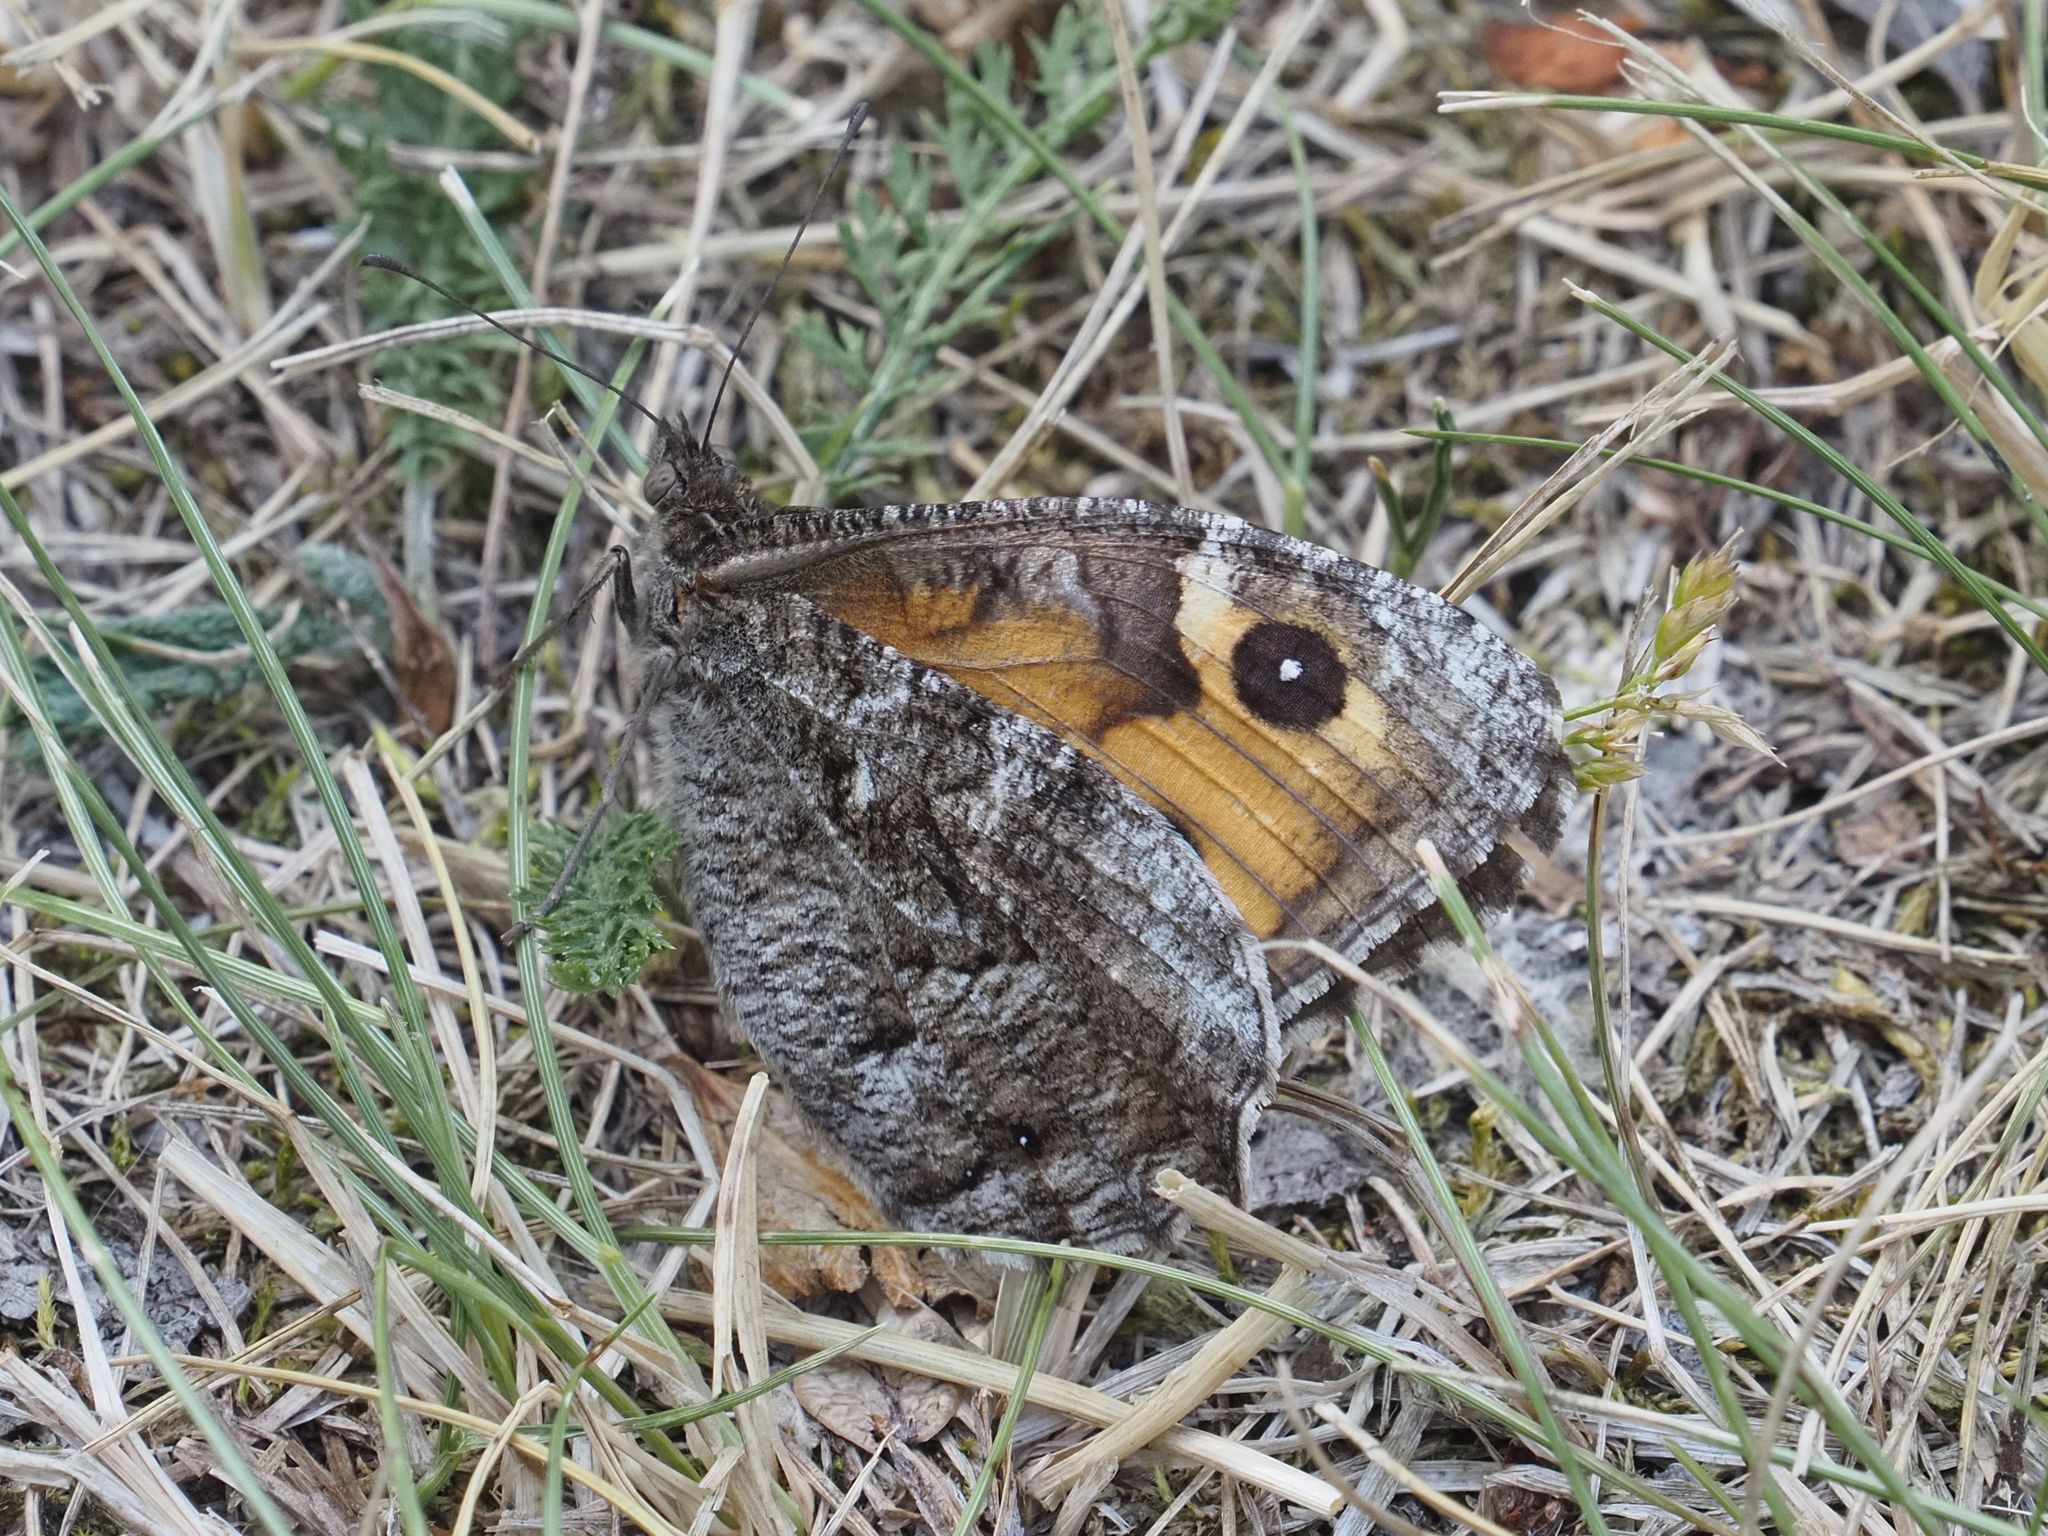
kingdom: Animalia
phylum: Arthropoda
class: Insecta
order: Lepidoptera
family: Nymphalidae
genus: Hipparchia
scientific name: Hipparchia semele
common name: Grayling
